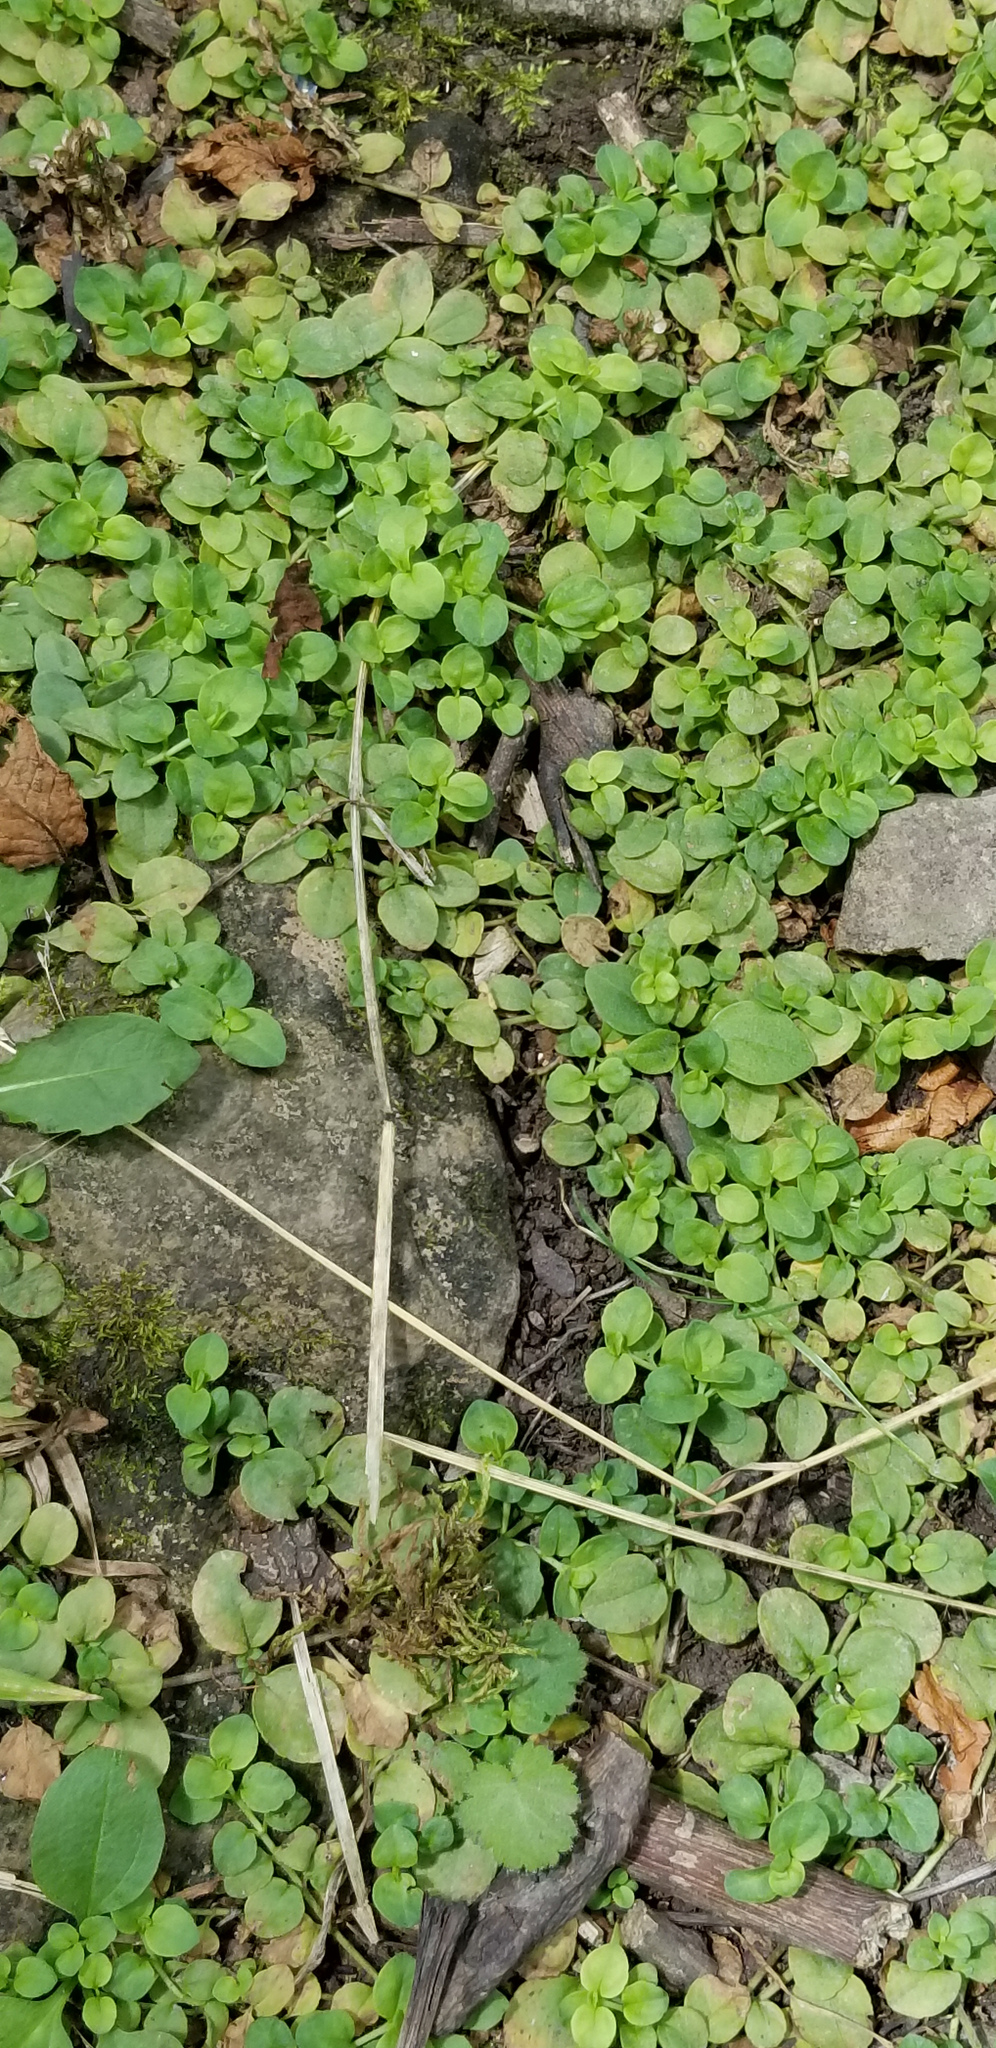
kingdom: Plantae
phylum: Tracheophyta
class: Magnoliopsida
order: Lamiales
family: Plantaginaceae
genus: Veronica
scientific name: Veronica serpyllifolia
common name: Thyme-leaved speedwell
